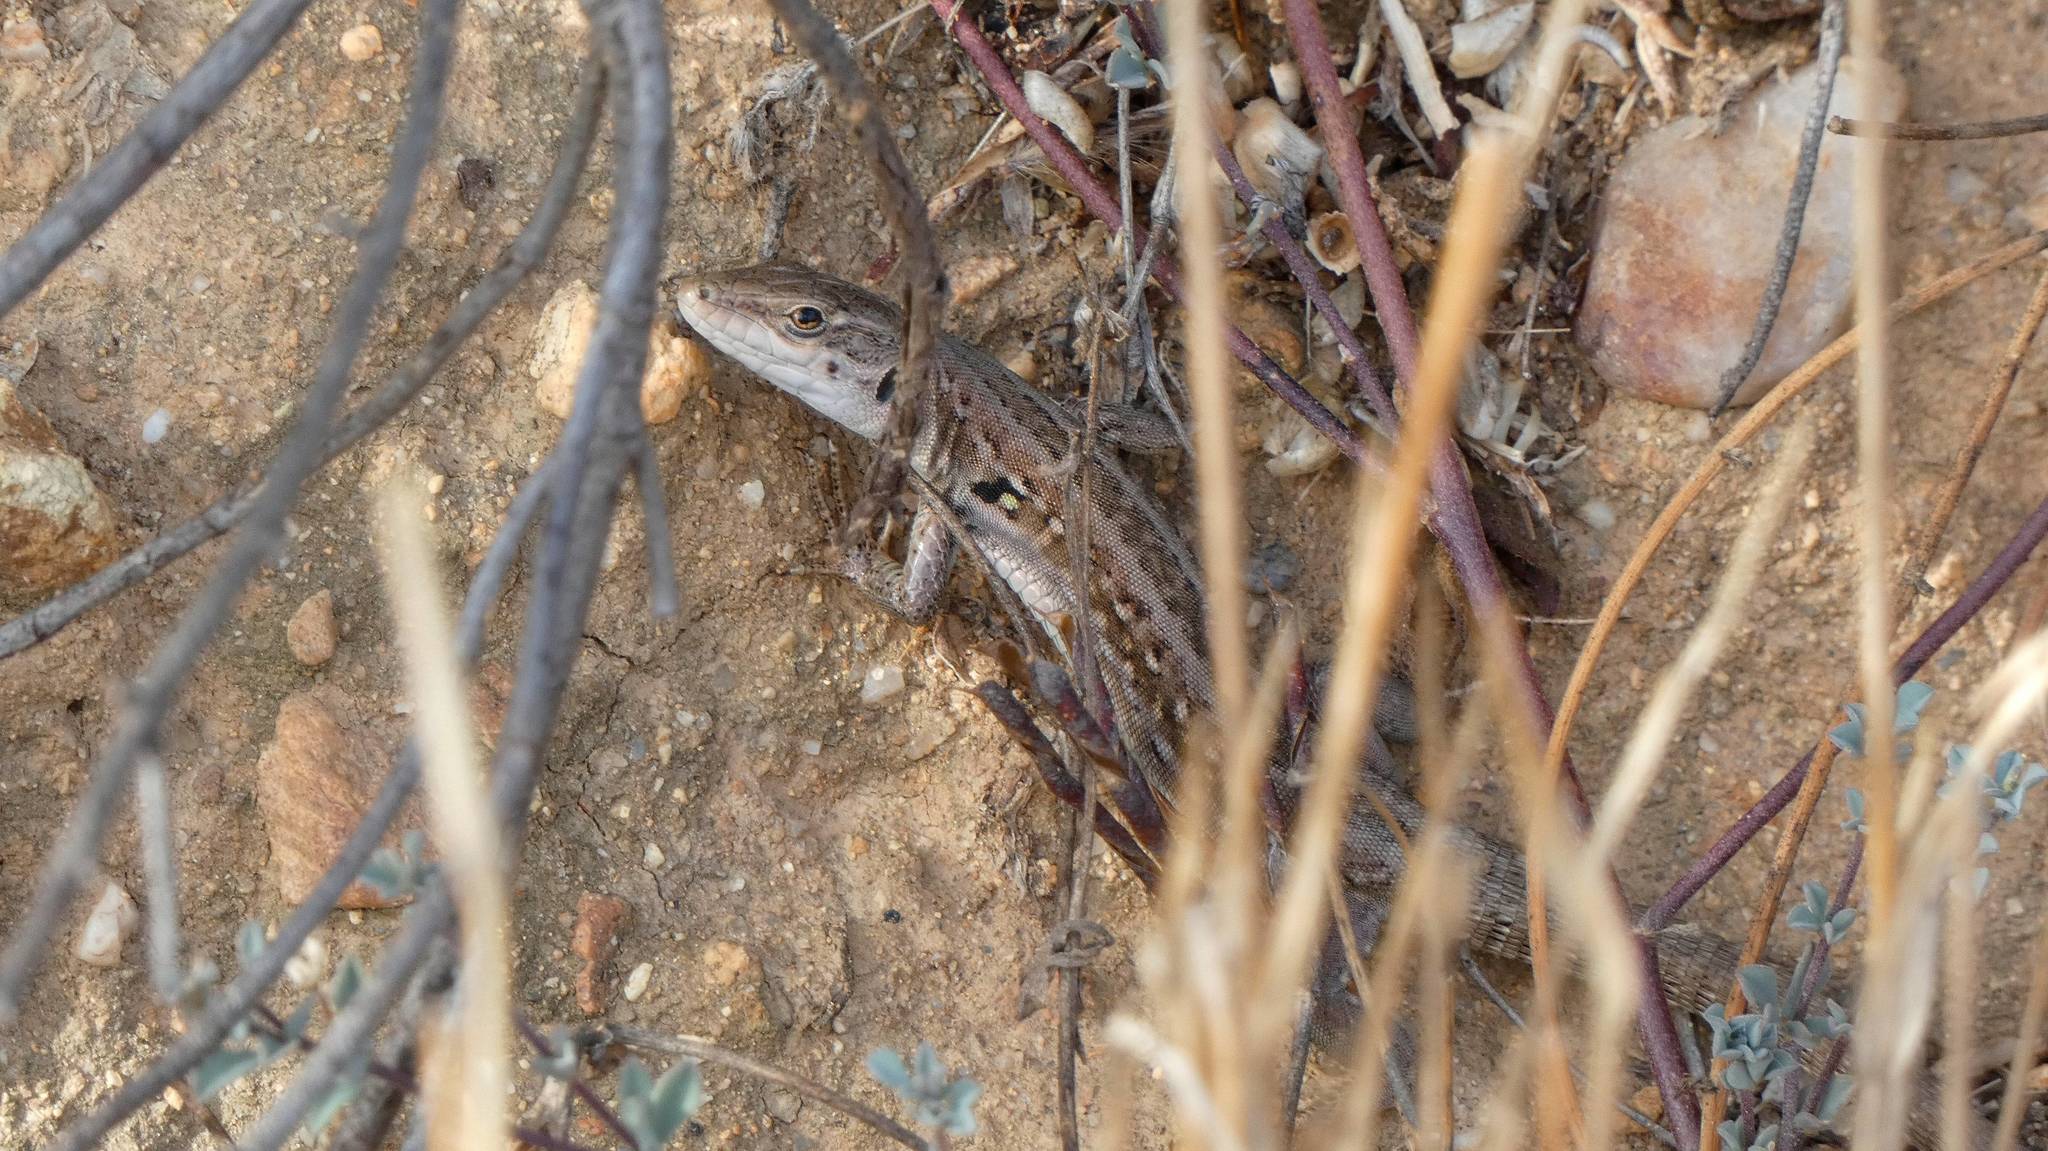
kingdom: Animalia
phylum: Chordata
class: Squamata
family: Lacertidae
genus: Podarcis
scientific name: Podarcis siculus
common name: Italian wall lizard
